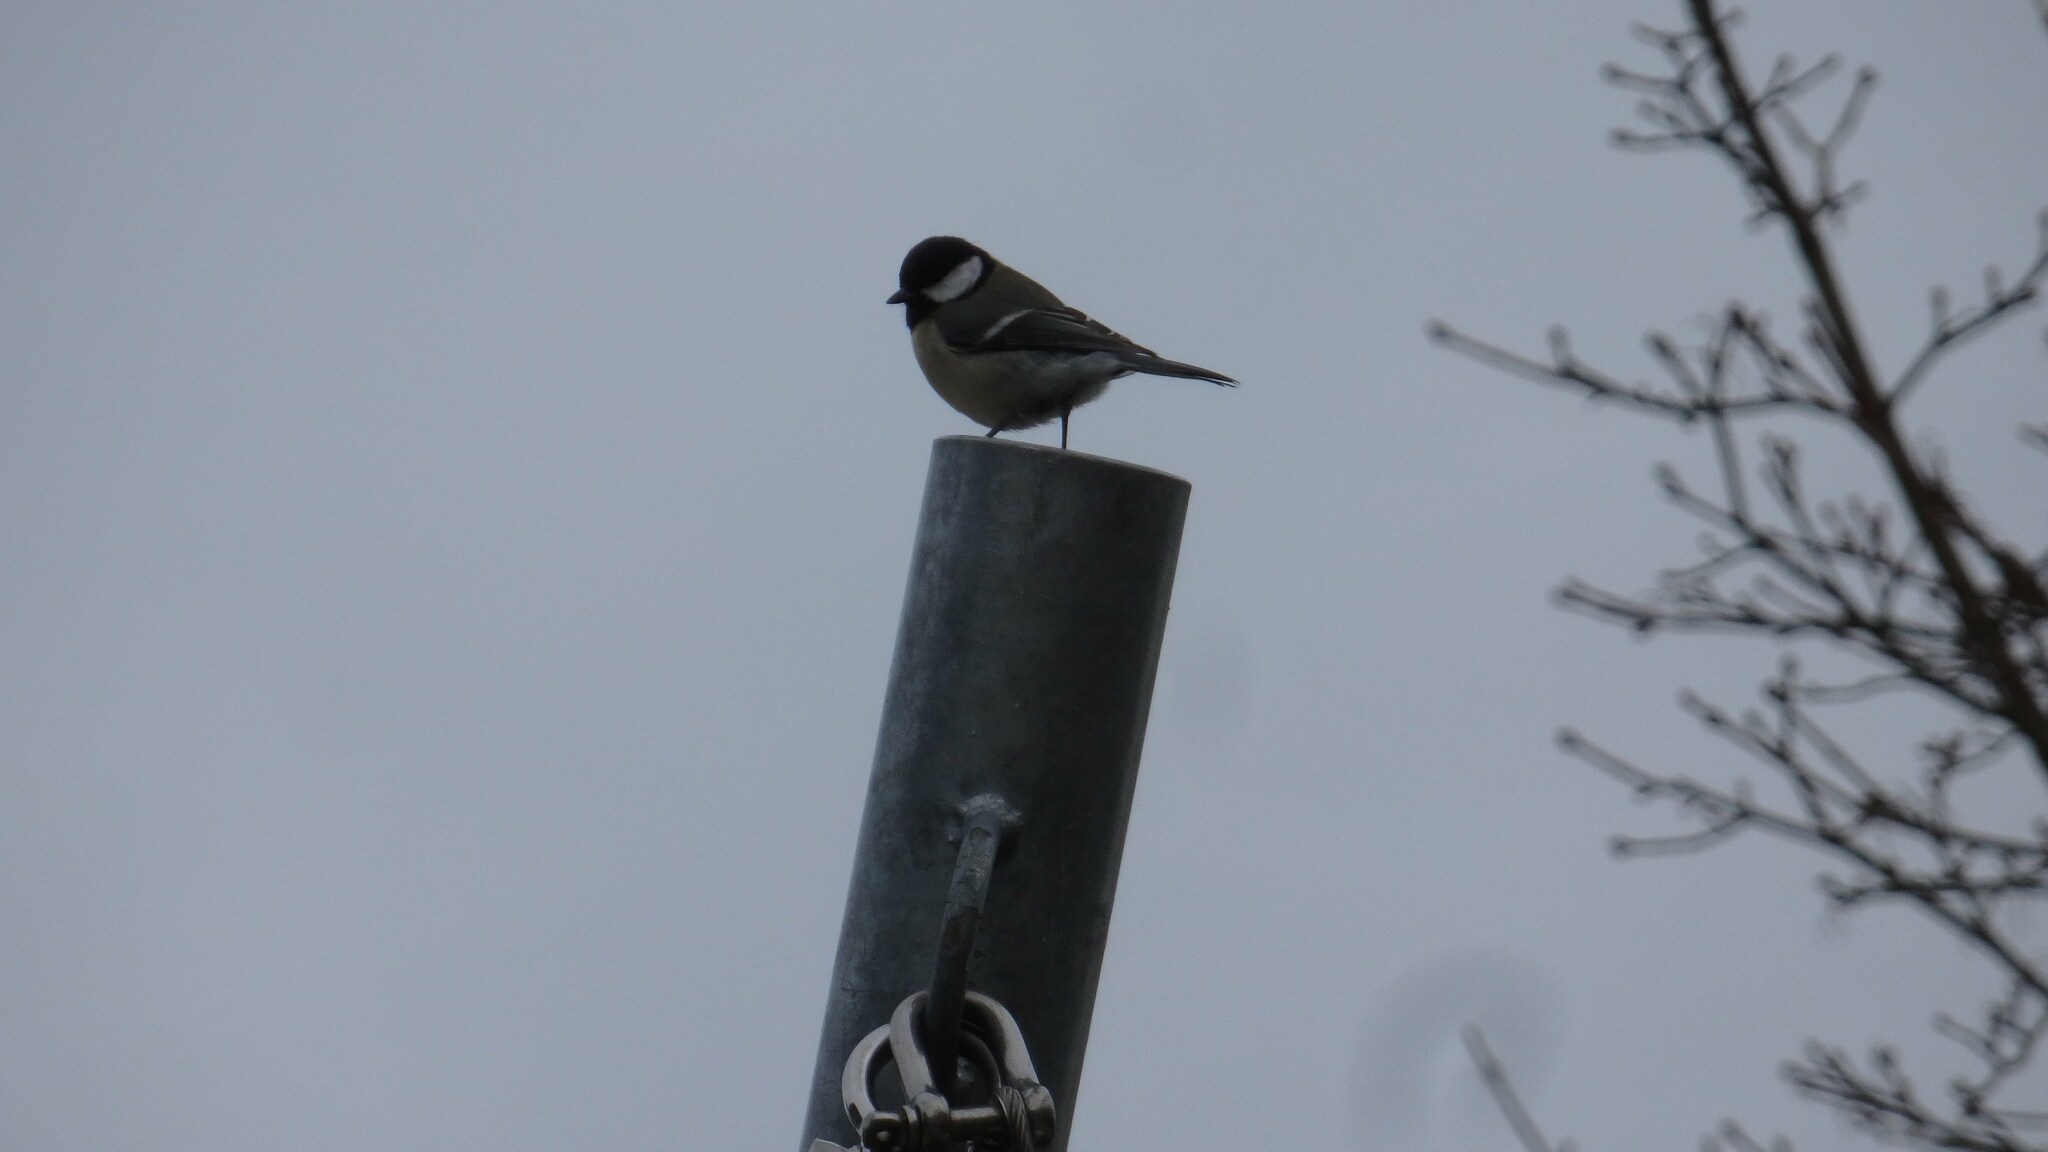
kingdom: Animalia
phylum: Chordata
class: Aves
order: Passeriformes
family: Paridae
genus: Parus
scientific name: Parus major
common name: Great tit
